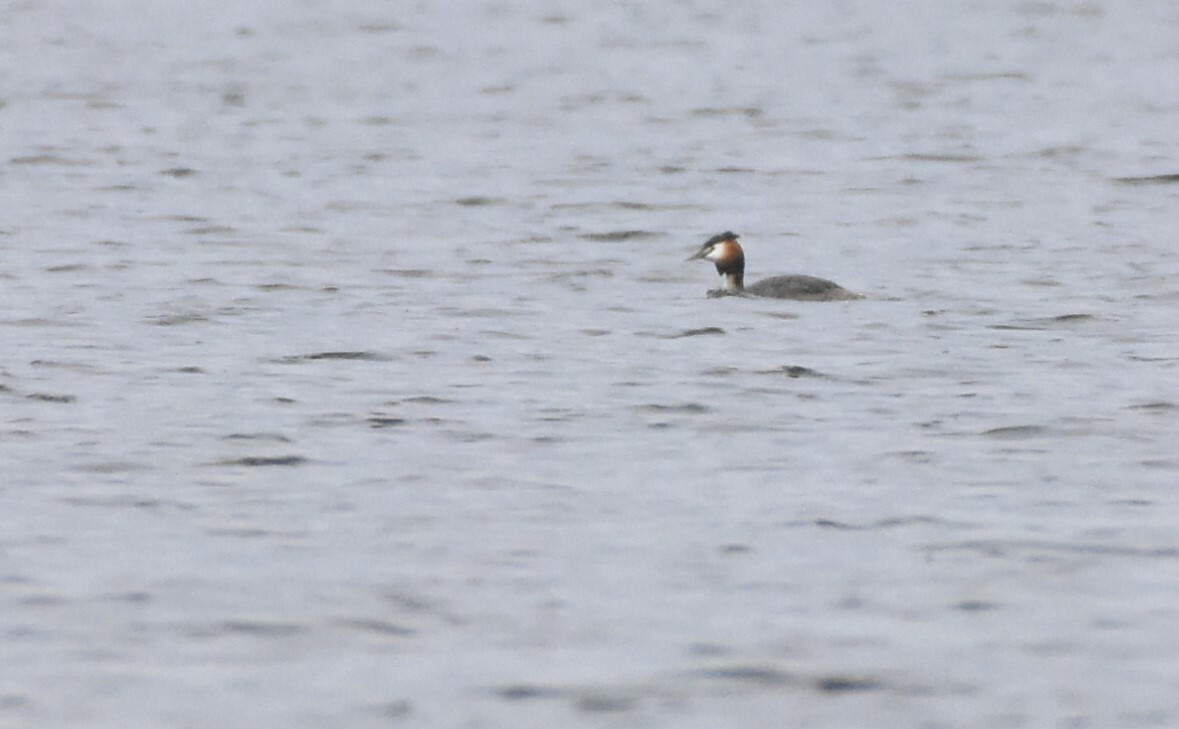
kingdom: Animalia
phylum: Chordata
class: Aves
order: Podicipediformes
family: Podicipedidae
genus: Podiceps
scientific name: Podiceps cristatus
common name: Great crested grebe
